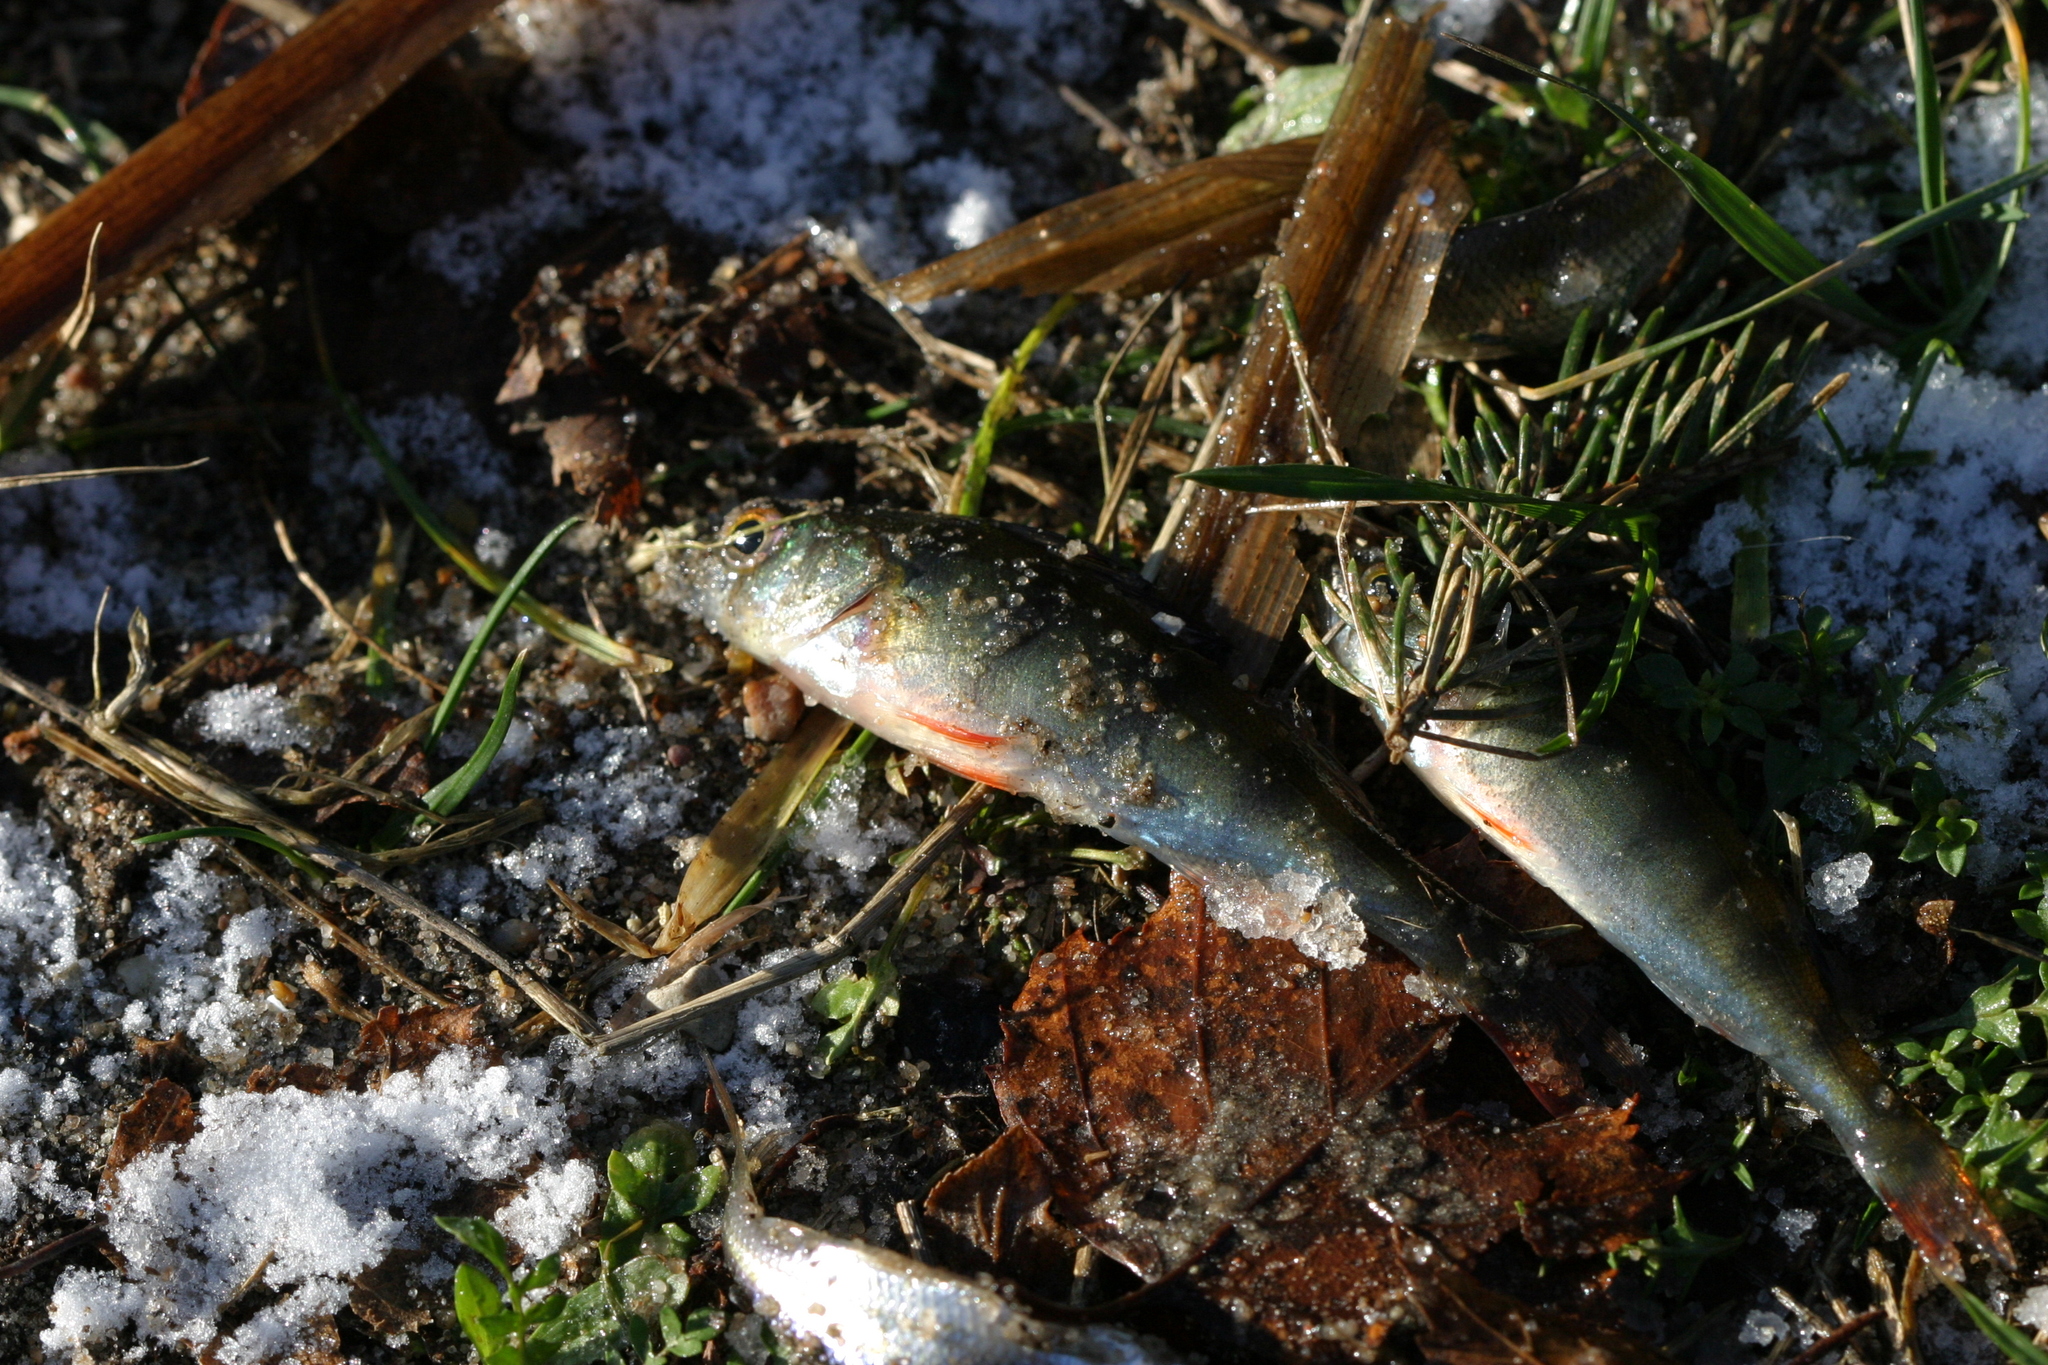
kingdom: Animalia
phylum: Chordata
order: Perciformes
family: Percidae
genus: Perca
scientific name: Perca fluviatilis
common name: Perch
